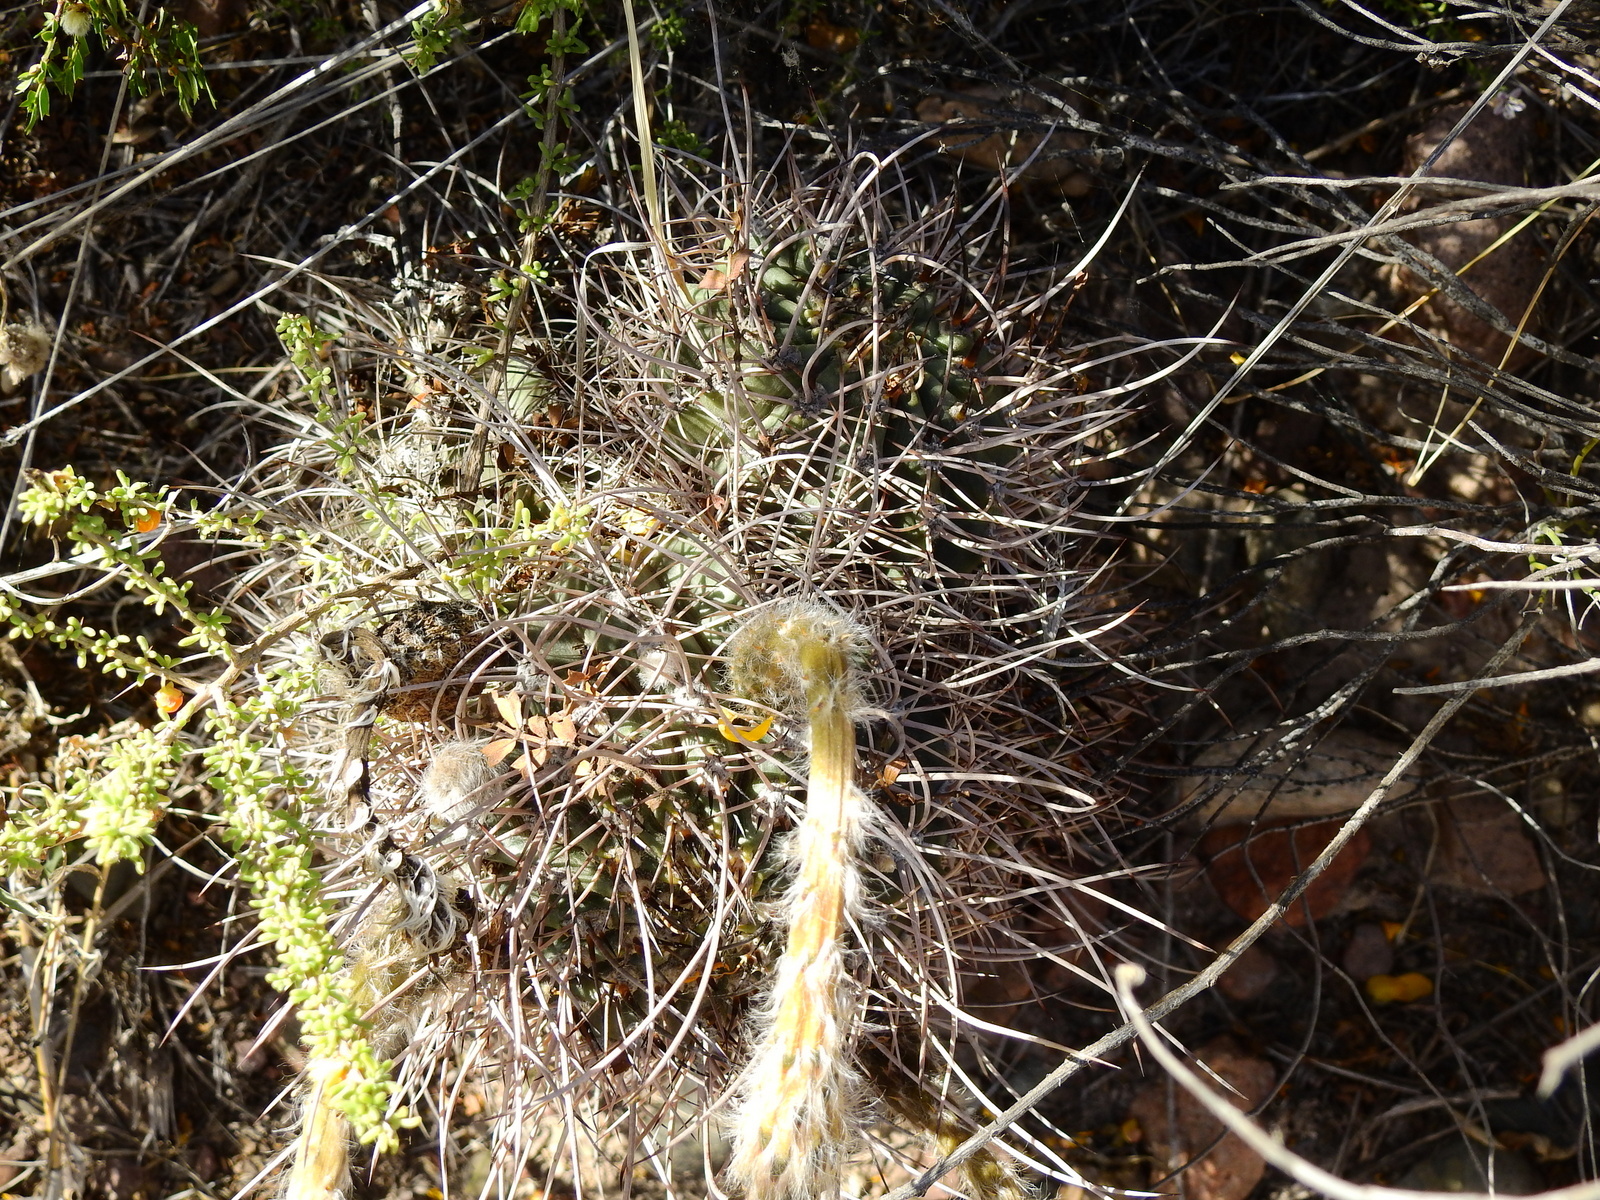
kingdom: Plantae
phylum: Tracheophyta
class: Magnoliopsida
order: Caryophyllales
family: Cactaceae
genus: Acanthocalycium
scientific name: Acanthocalycium leucanthum
